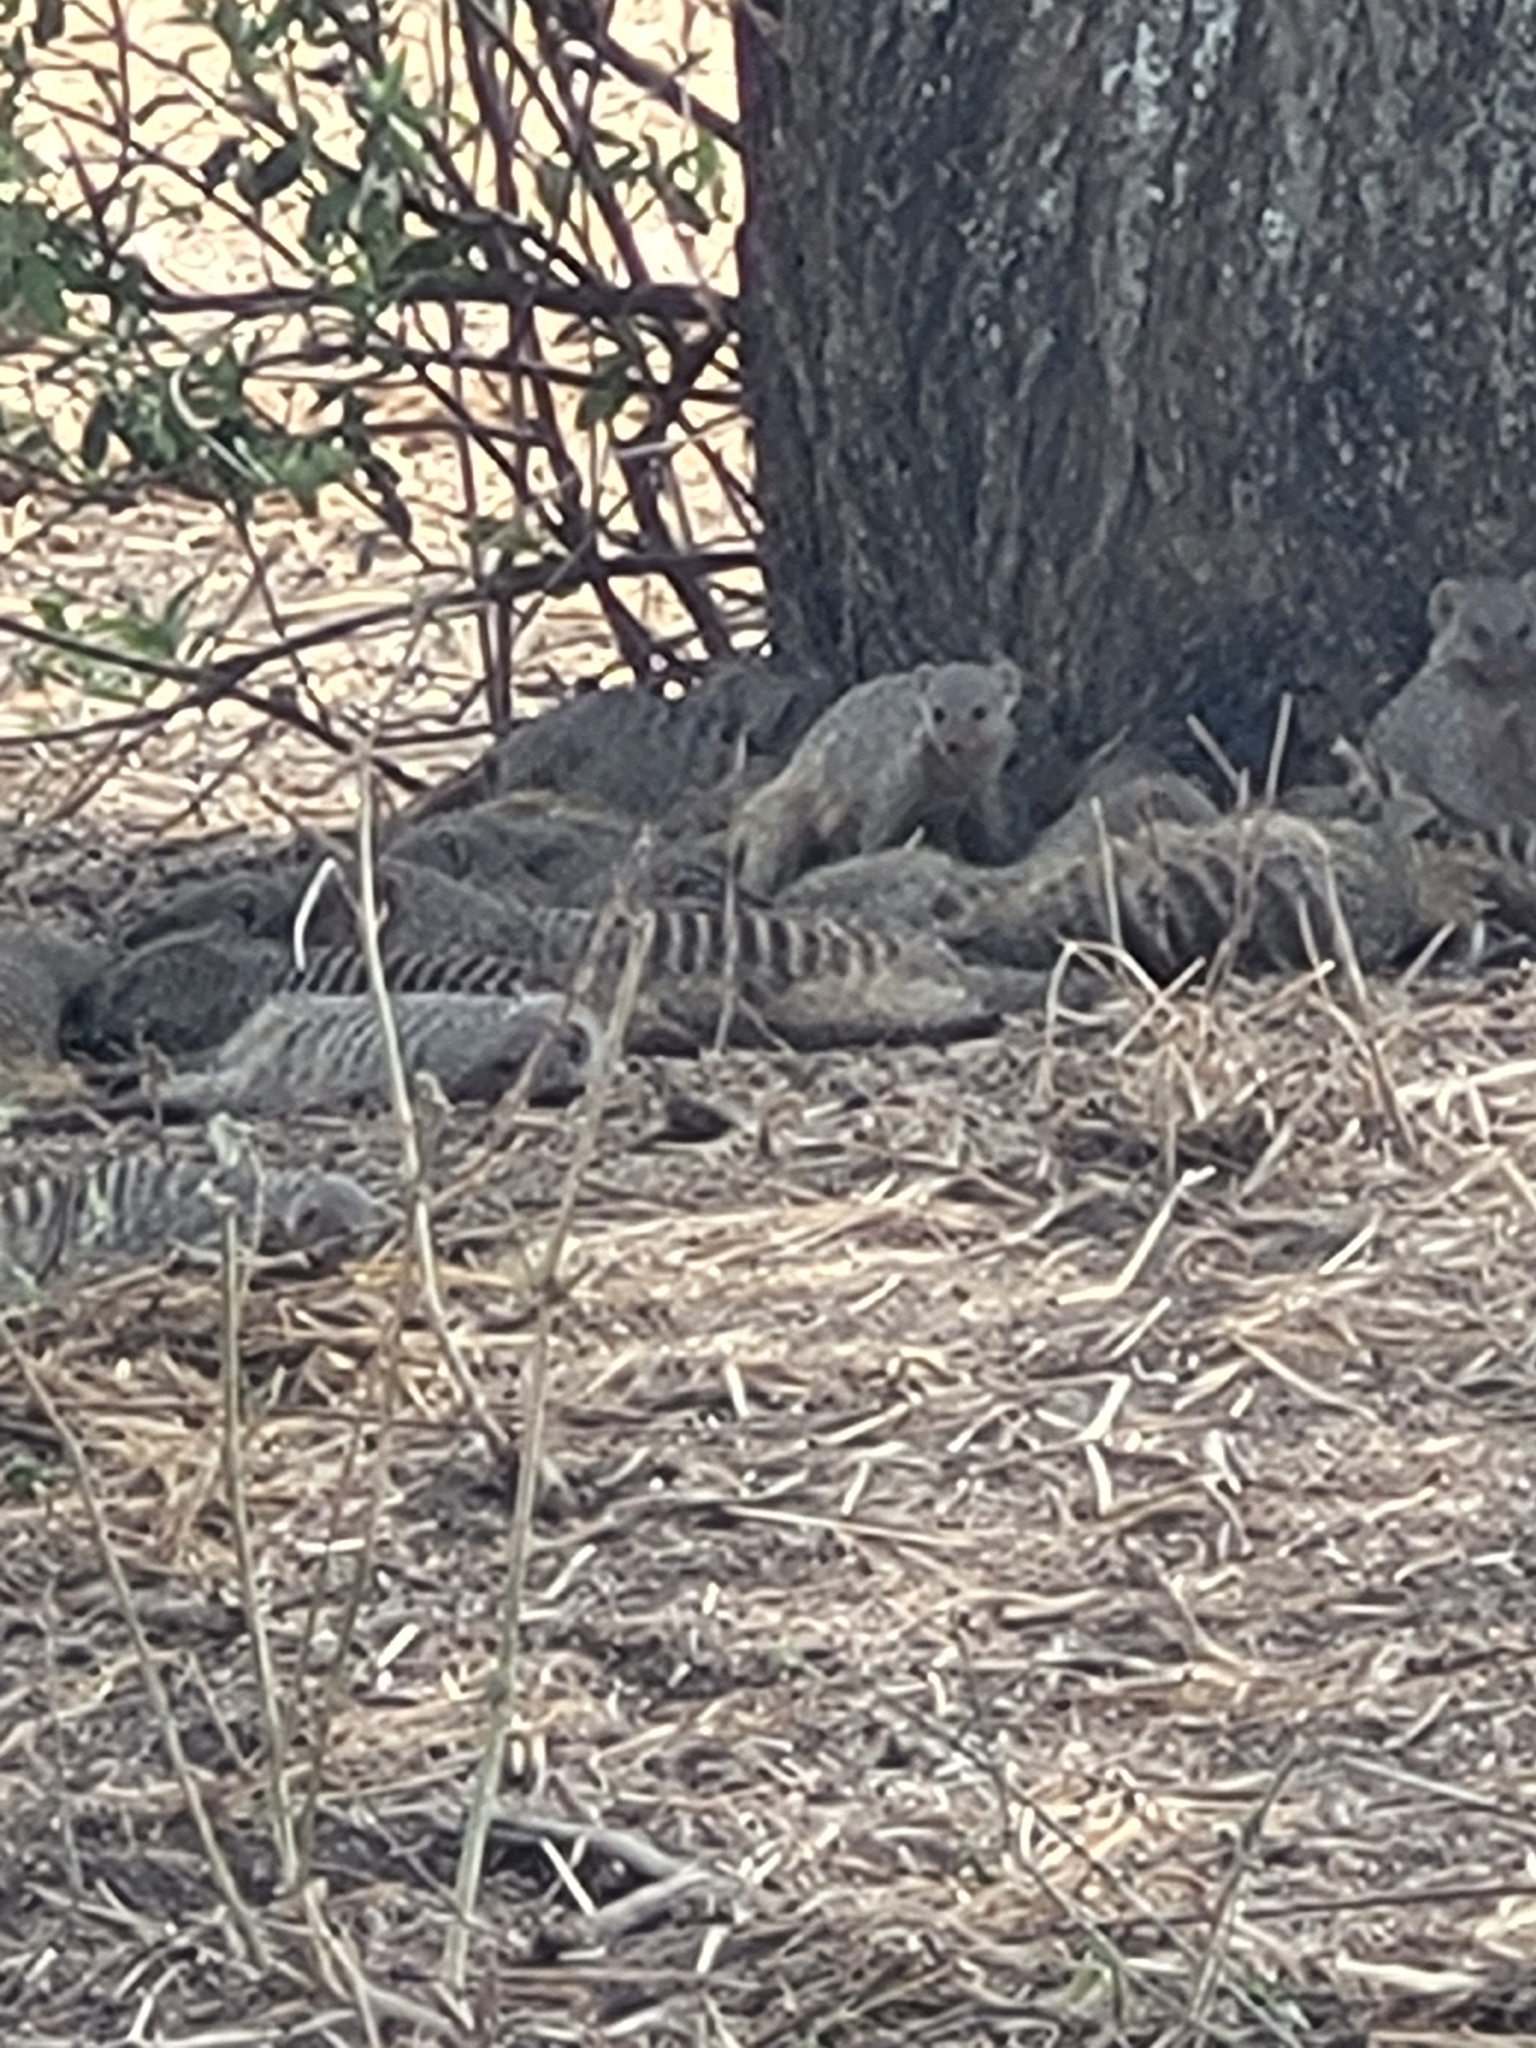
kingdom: Animalia
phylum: Chordata
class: Mammalia
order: Carnivora
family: Herpestidae
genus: Mungos
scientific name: Mungos mungo
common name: Banded mongoose
